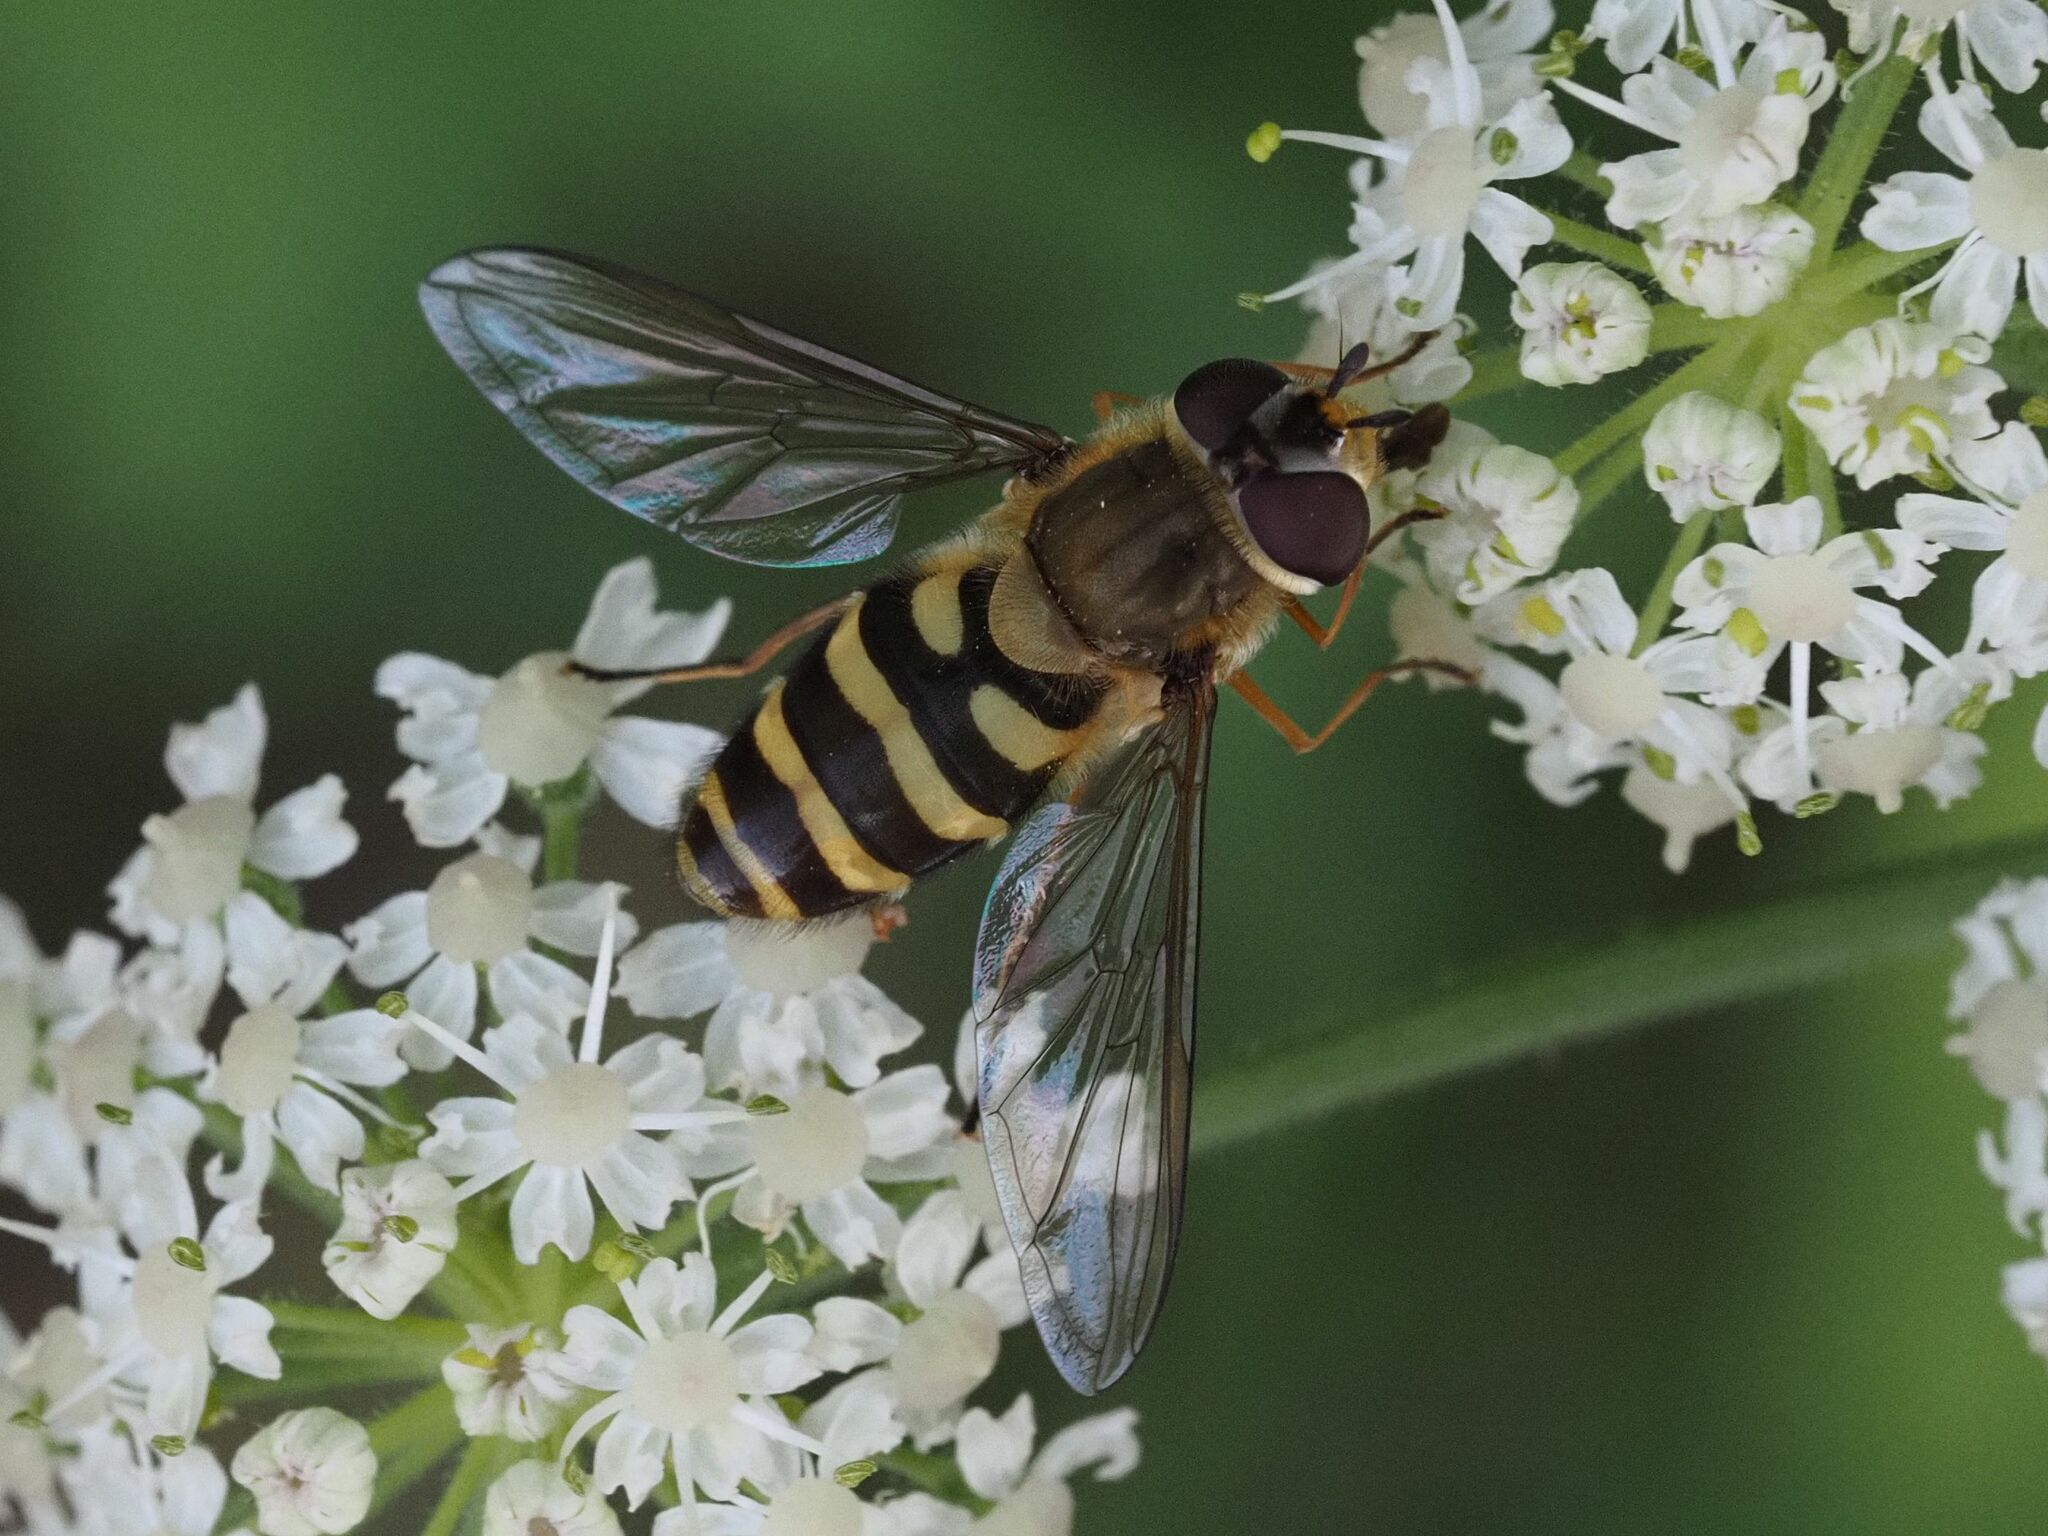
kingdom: Animalia
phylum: Arthropoda
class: Insecta
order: Diptera
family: Syrphidae
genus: Syrphus
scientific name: Syrphus
